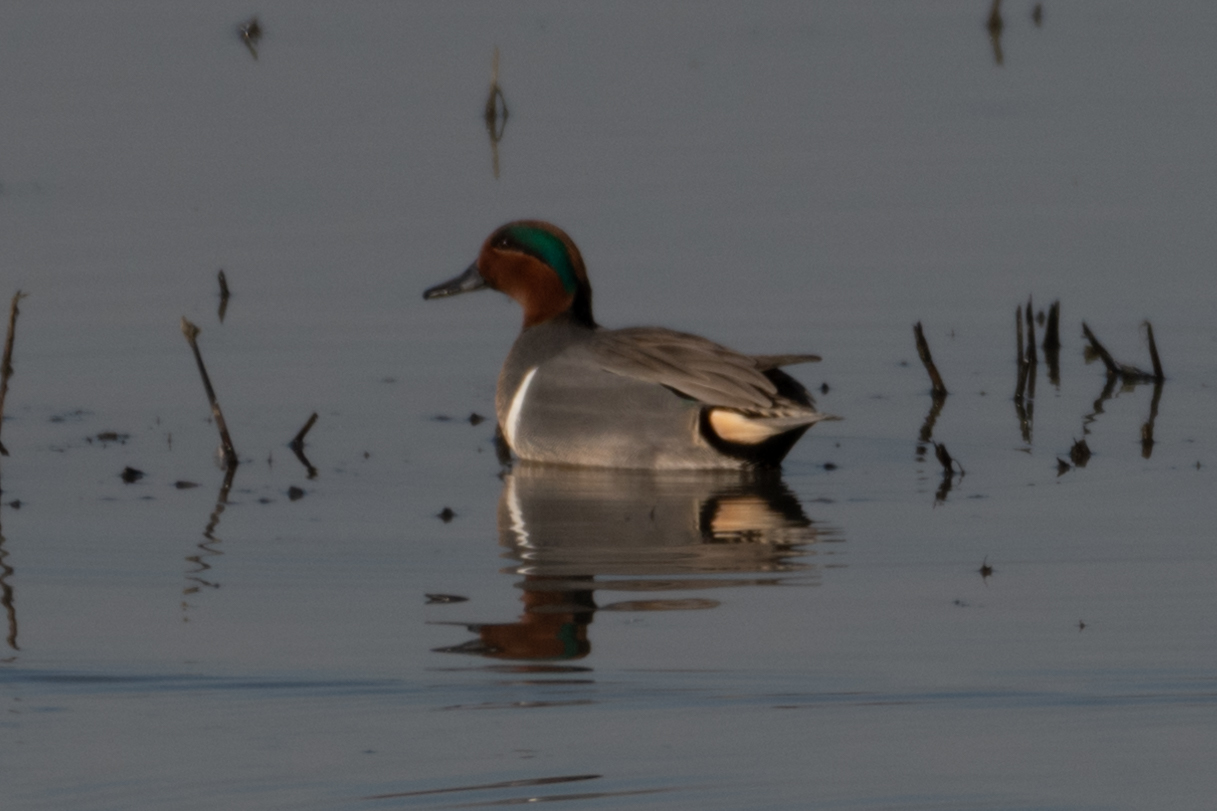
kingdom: Animalia
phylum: Chordata
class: Aves
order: Anseriformes
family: Anatidae
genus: Anas
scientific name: Anas crecca
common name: Eurasian teal
